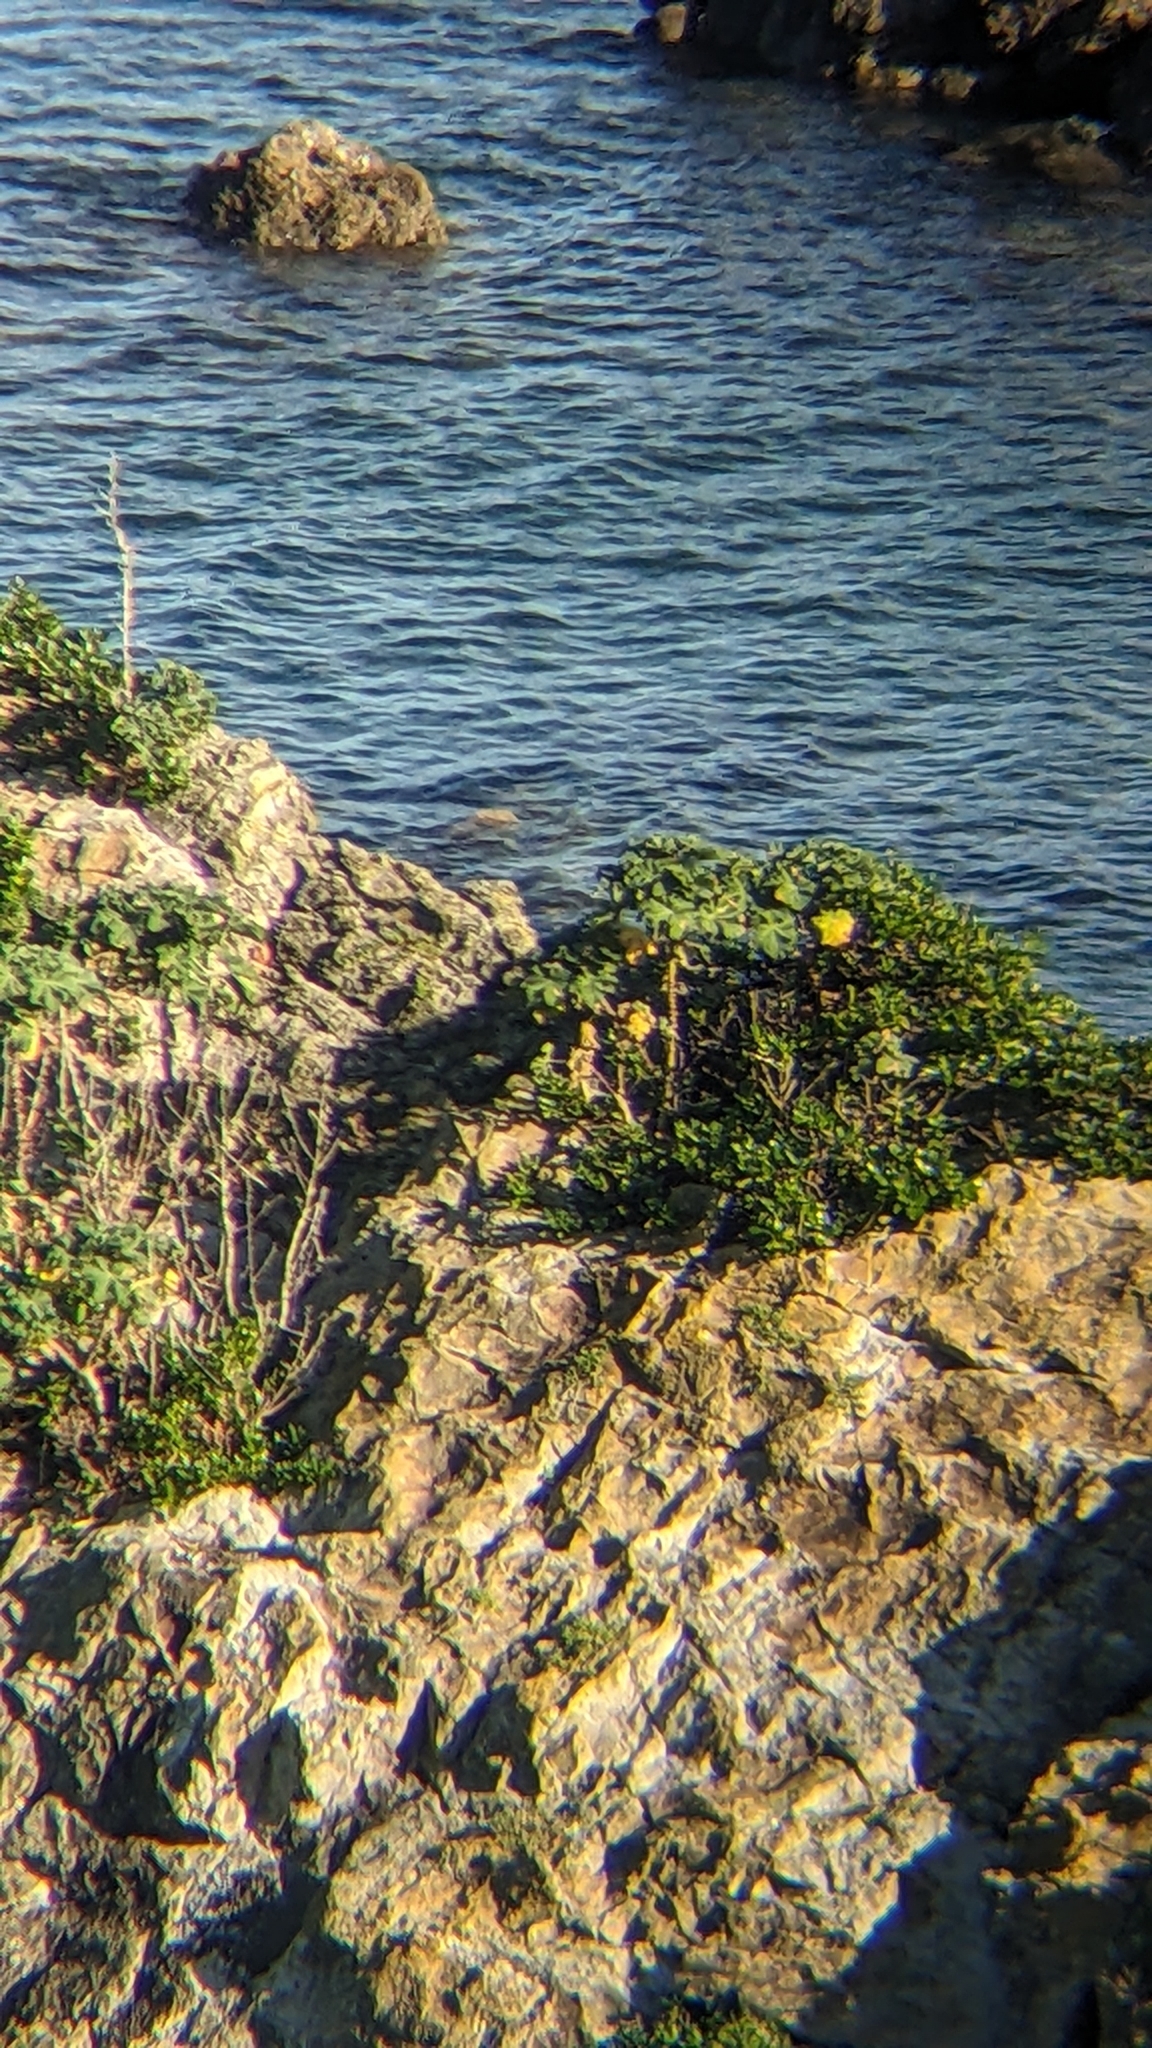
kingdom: Plantae
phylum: Tracheophyta
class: Magnoliopsida
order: Malvales
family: Malvaceae
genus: Malva
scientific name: Malva arborea
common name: Tree mallow
